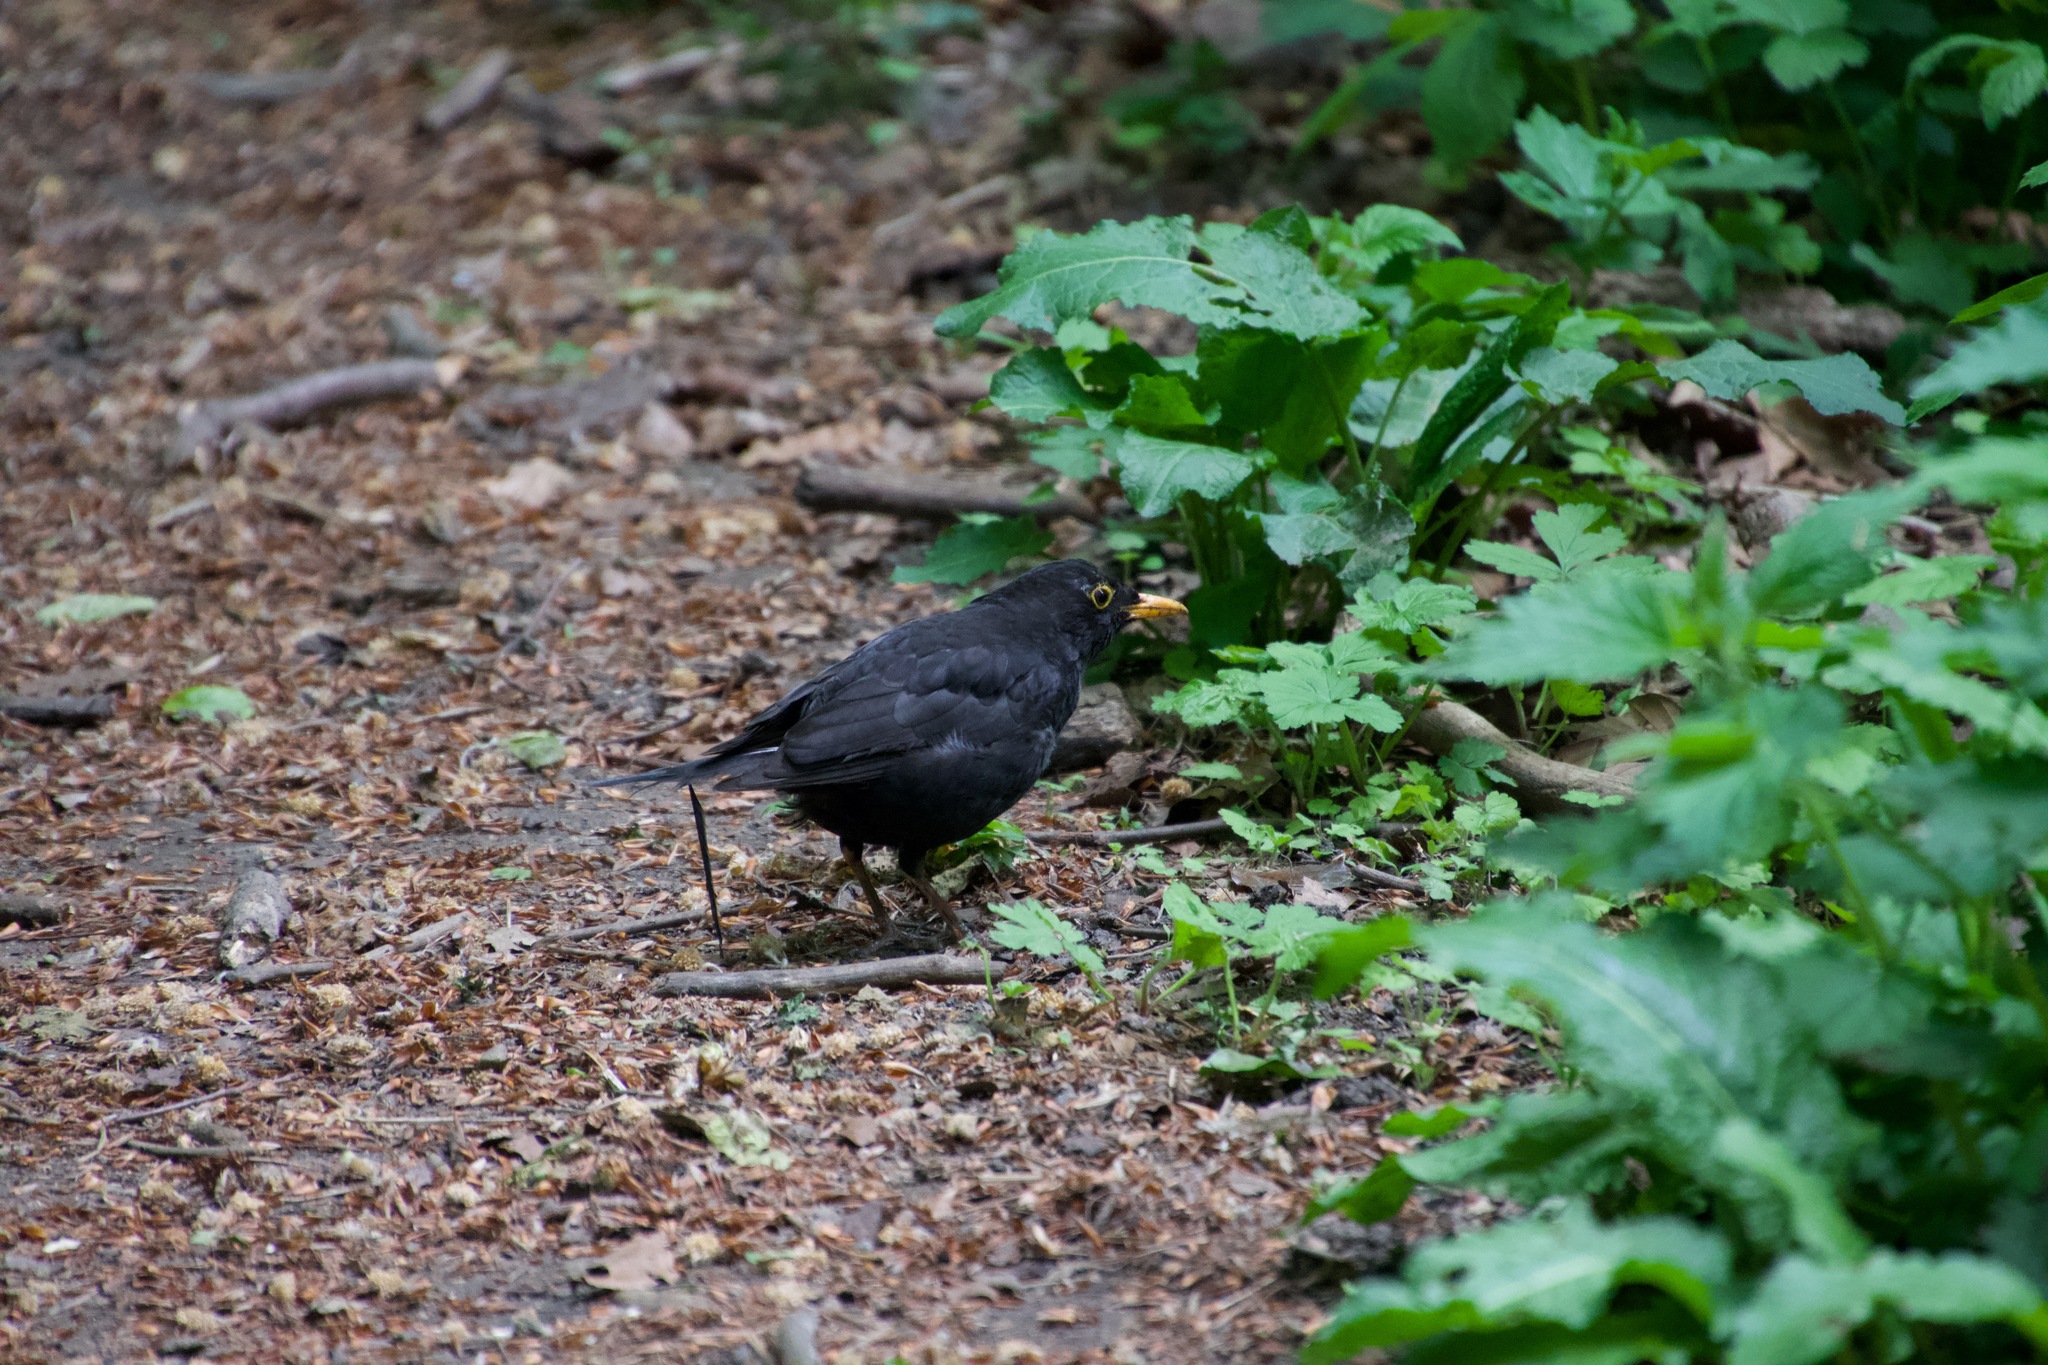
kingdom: Animalia
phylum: Chordata
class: Aves
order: Passeriformes
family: Turdidae
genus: Turdus
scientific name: Turdus merula
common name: Common blackbird
